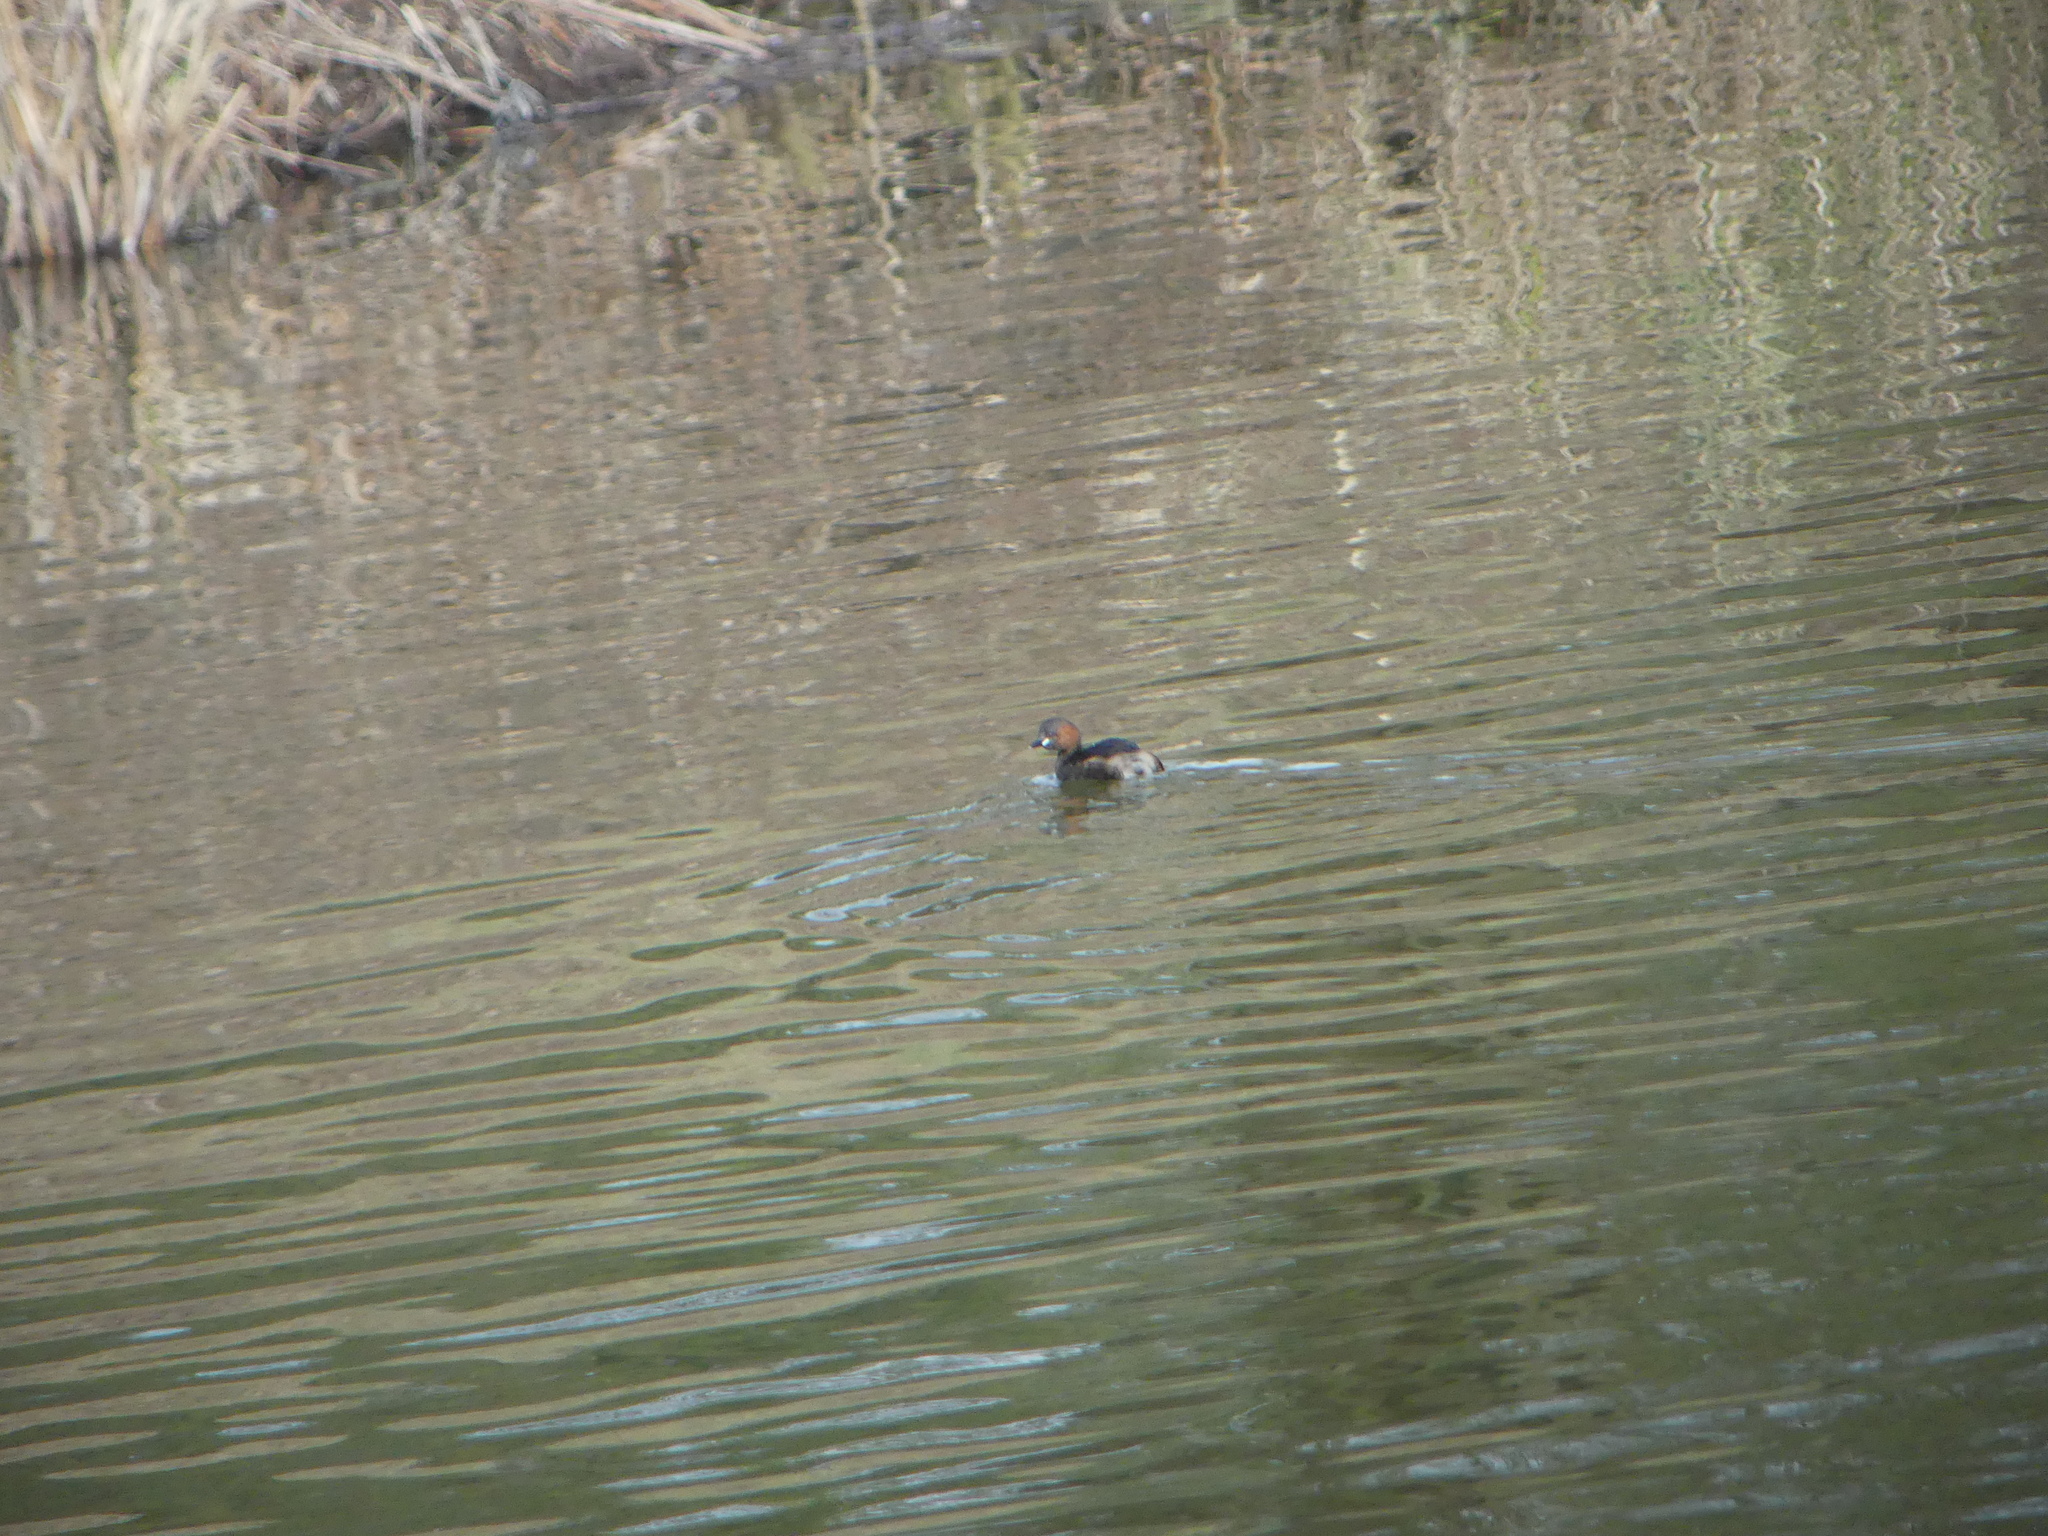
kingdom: Animalia
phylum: Chordata
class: Aves
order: Podicipediformes
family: Podicipedidae
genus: Tachybaptus
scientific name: Tachybaptus ruficollis
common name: Little grebe
